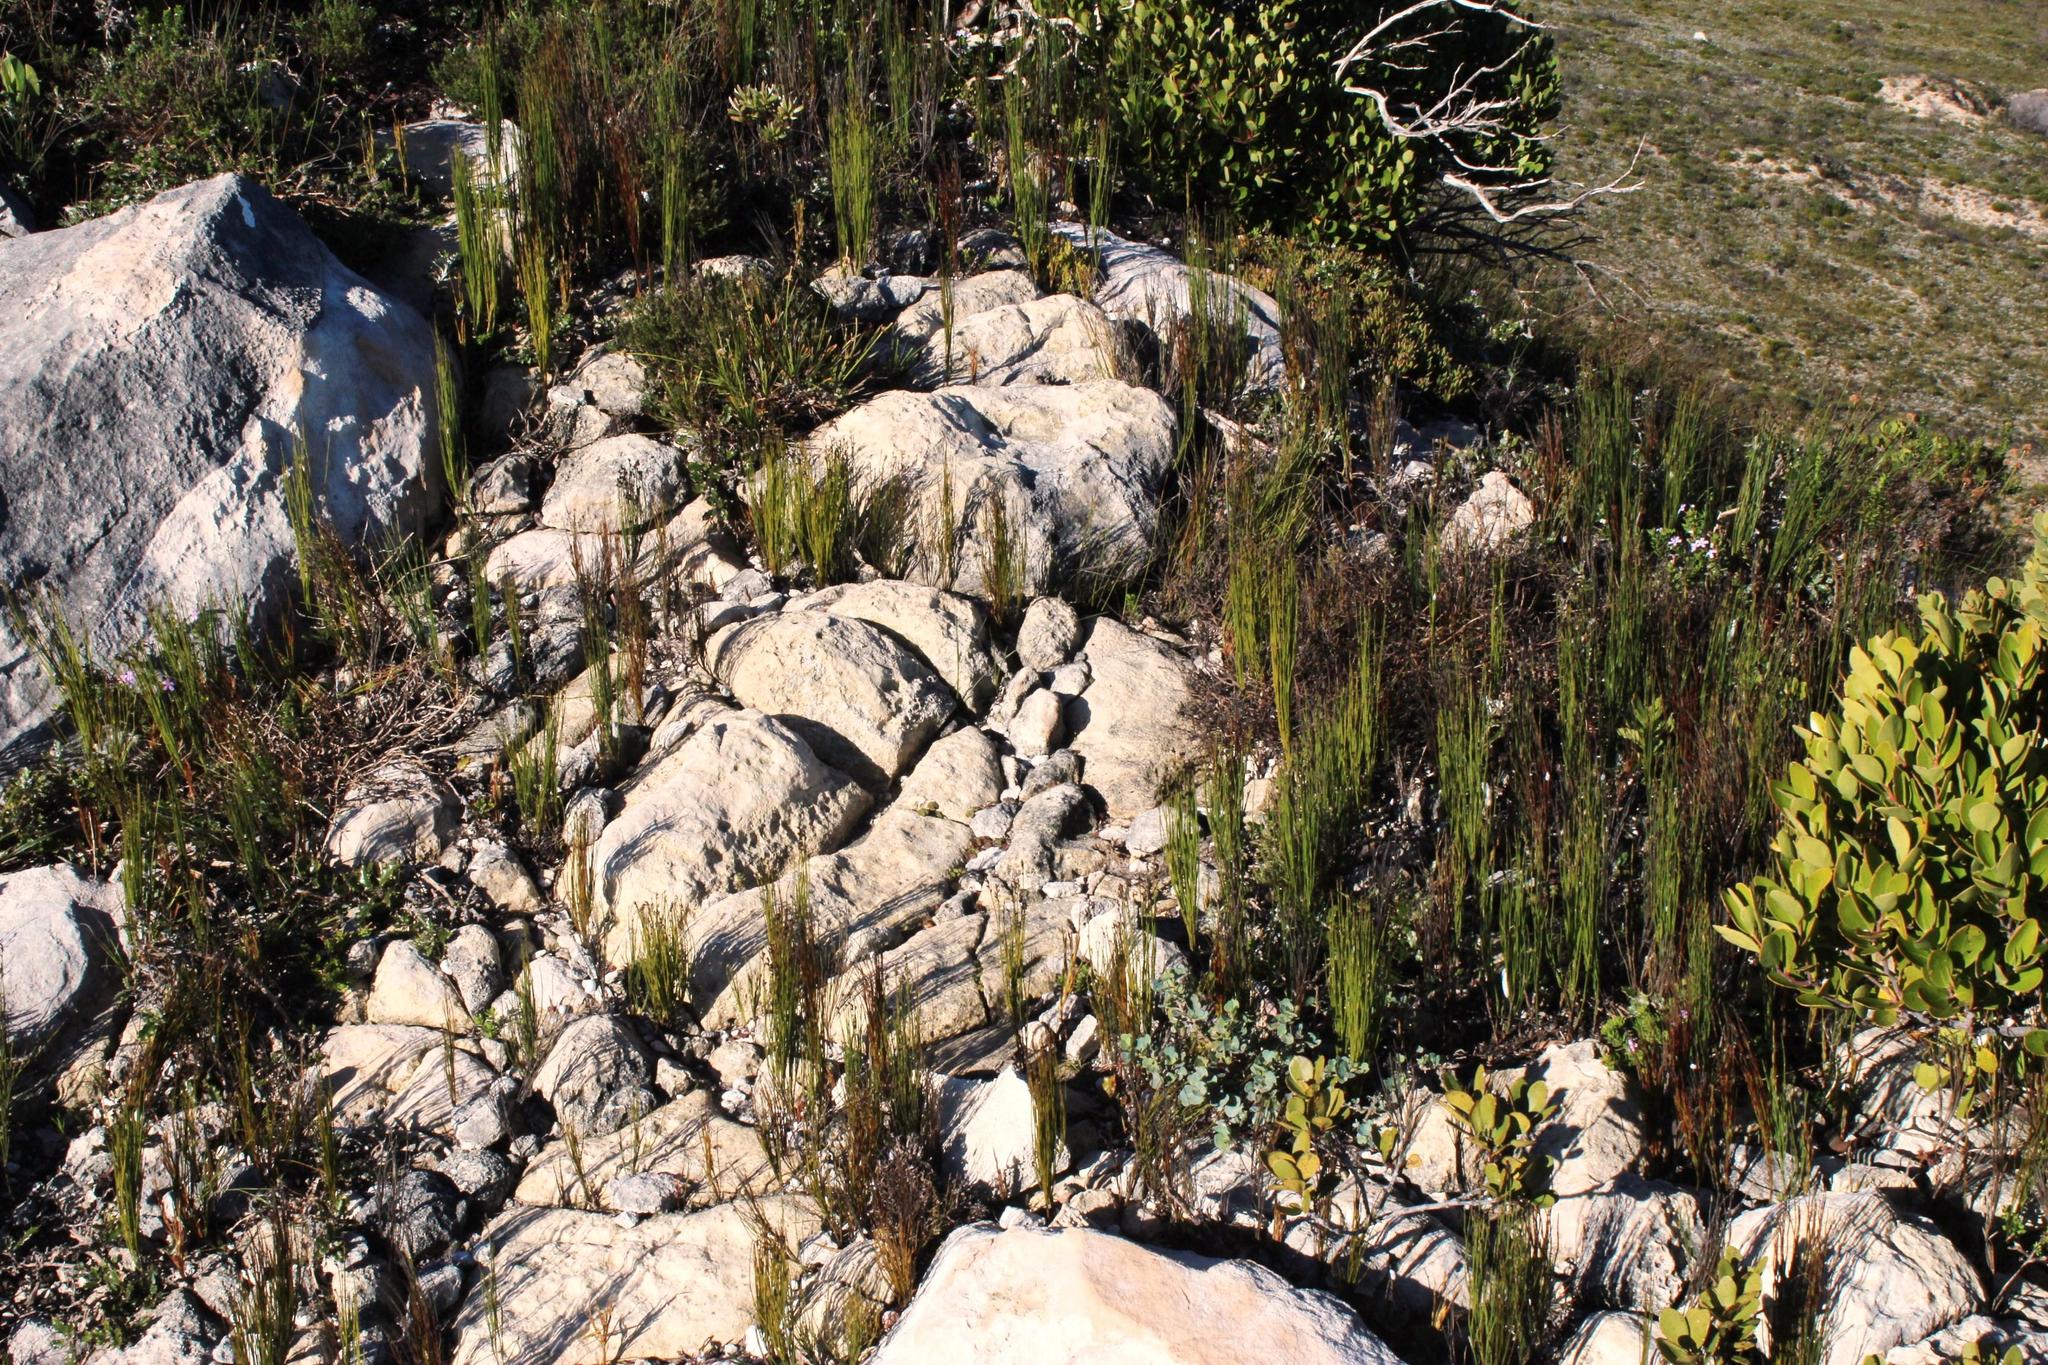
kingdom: Plantae
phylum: Tracheophyta
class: Liliopsida
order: Poales
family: Restionaceae
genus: Elegia
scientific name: Elegia microcarpa
